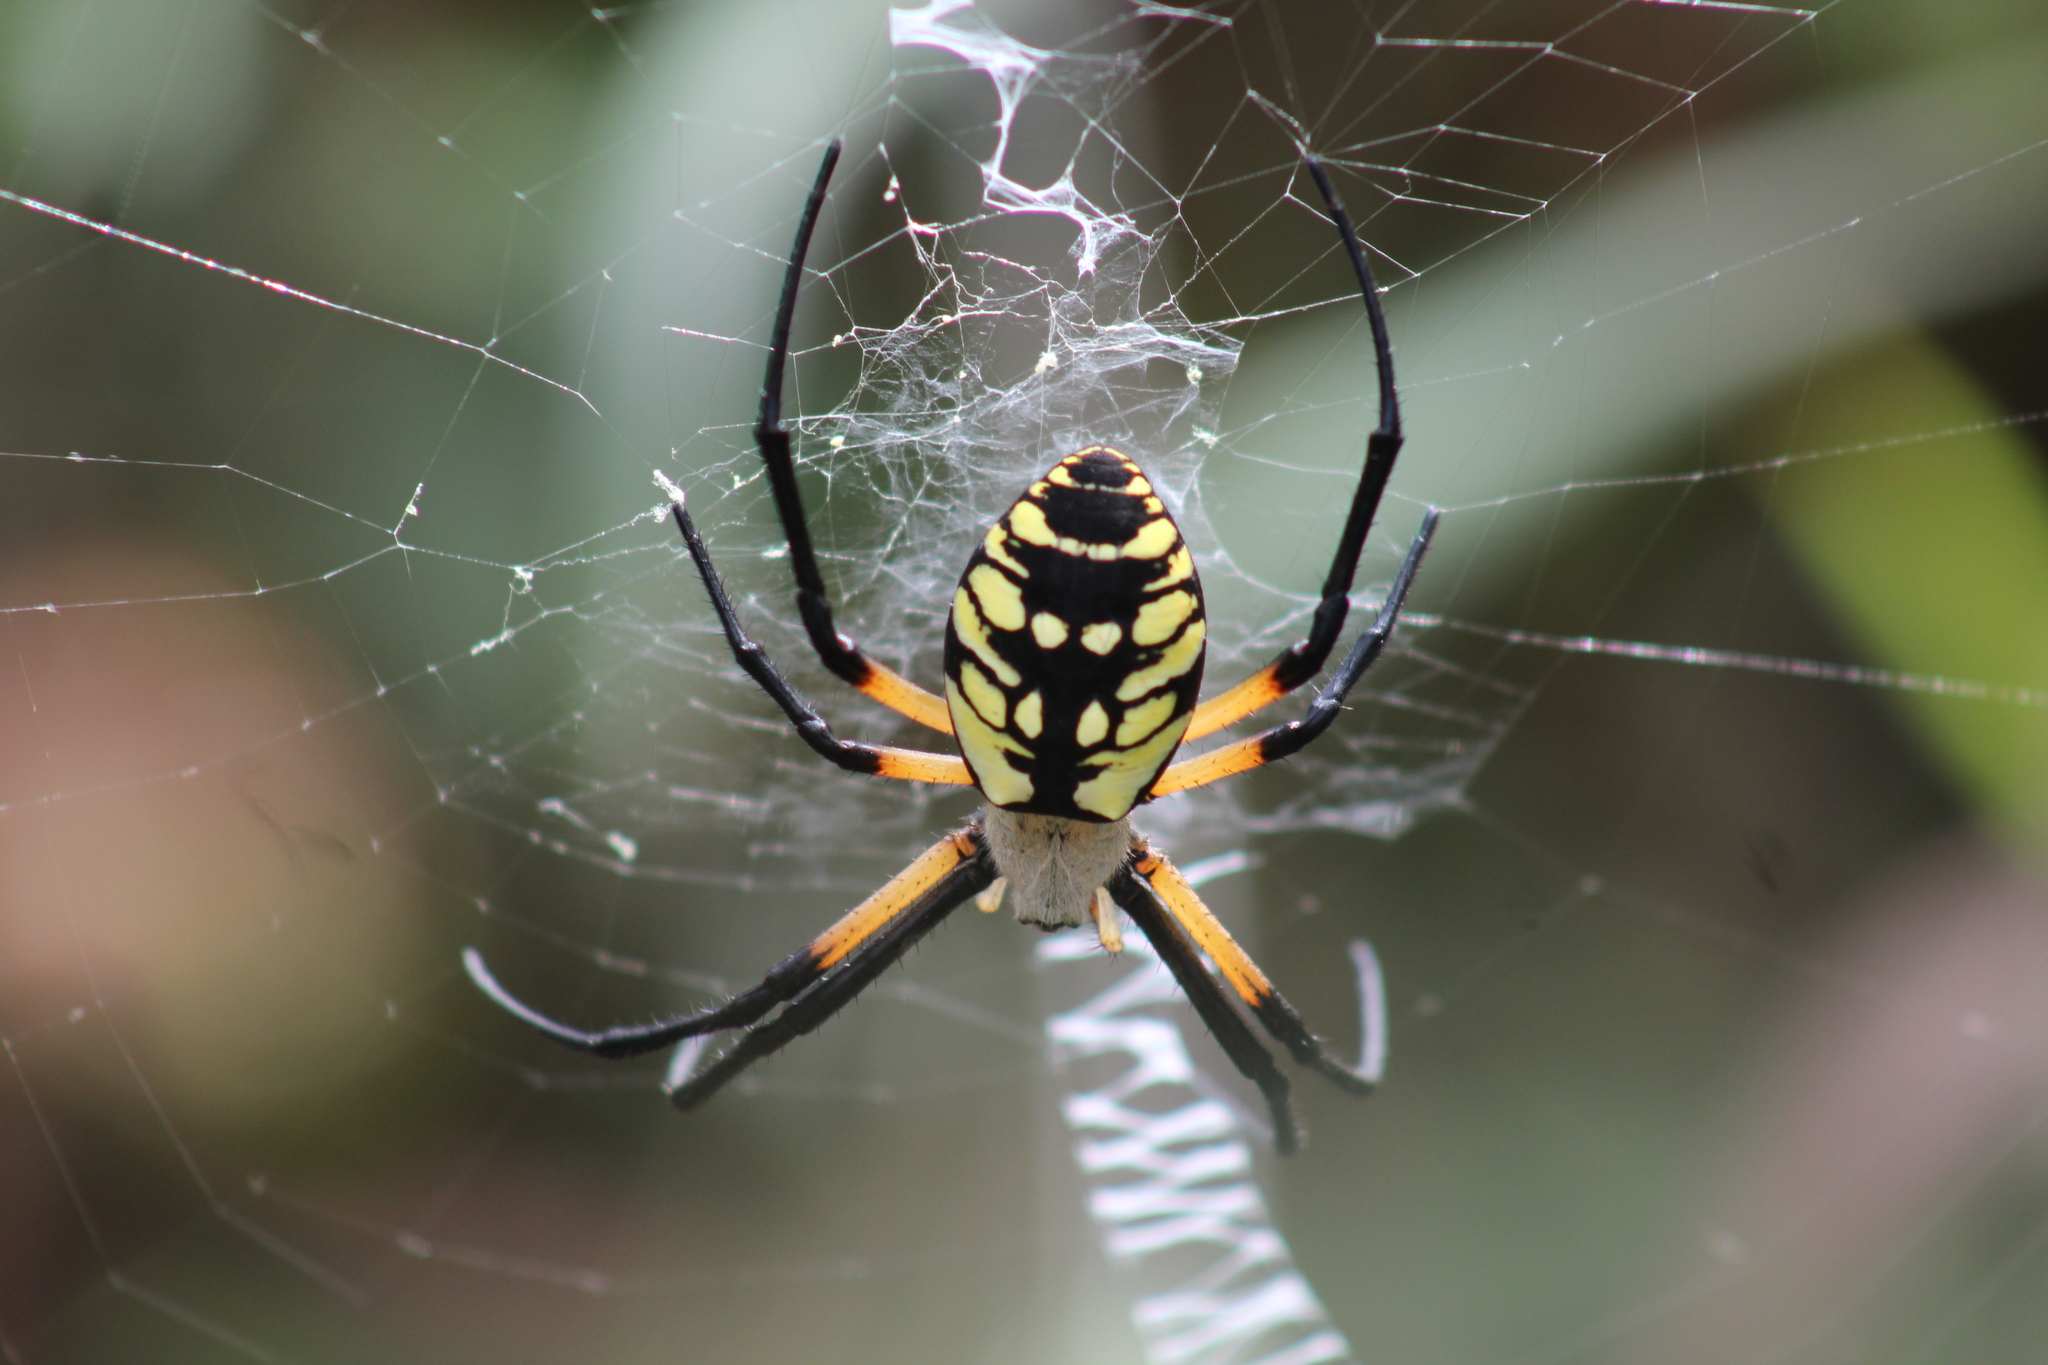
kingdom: Animalia
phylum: Arthropoda
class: Arachnida
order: Araneae
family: Araneidae
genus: Argiope
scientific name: Argiope aurantia
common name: Orb weavers
